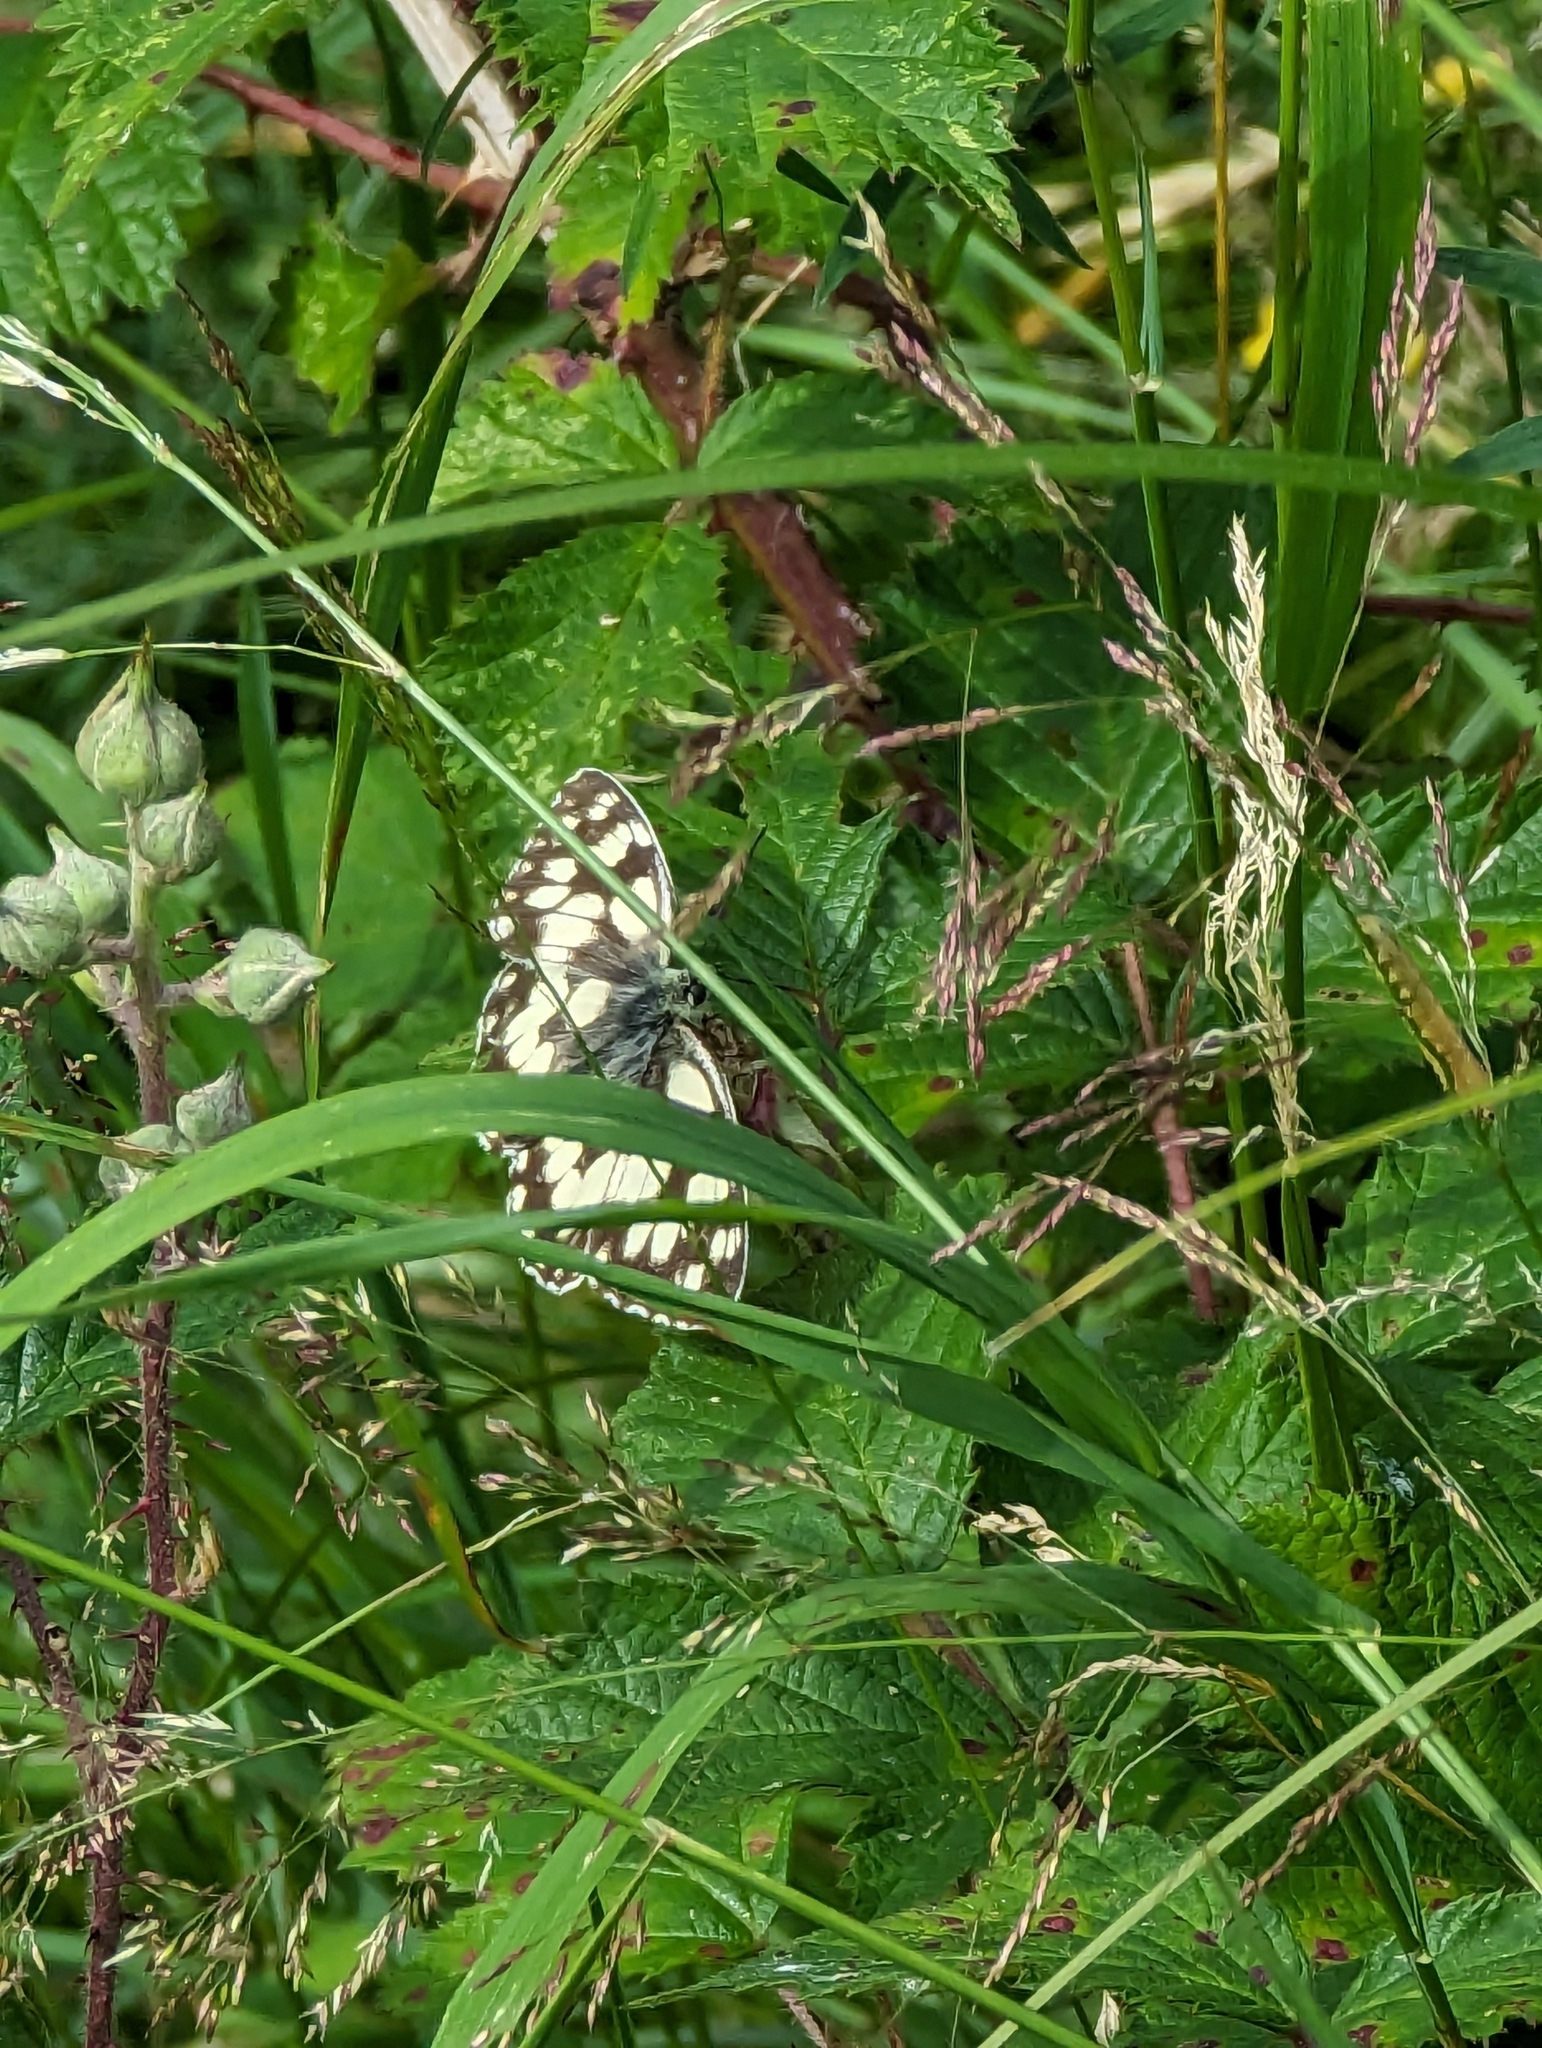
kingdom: Animalia
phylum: Arthropoda
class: Insecta
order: Lepidoptera
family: Nymphalidae
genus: Melanargia
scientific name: Melanargia galathea
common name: Marbled white
